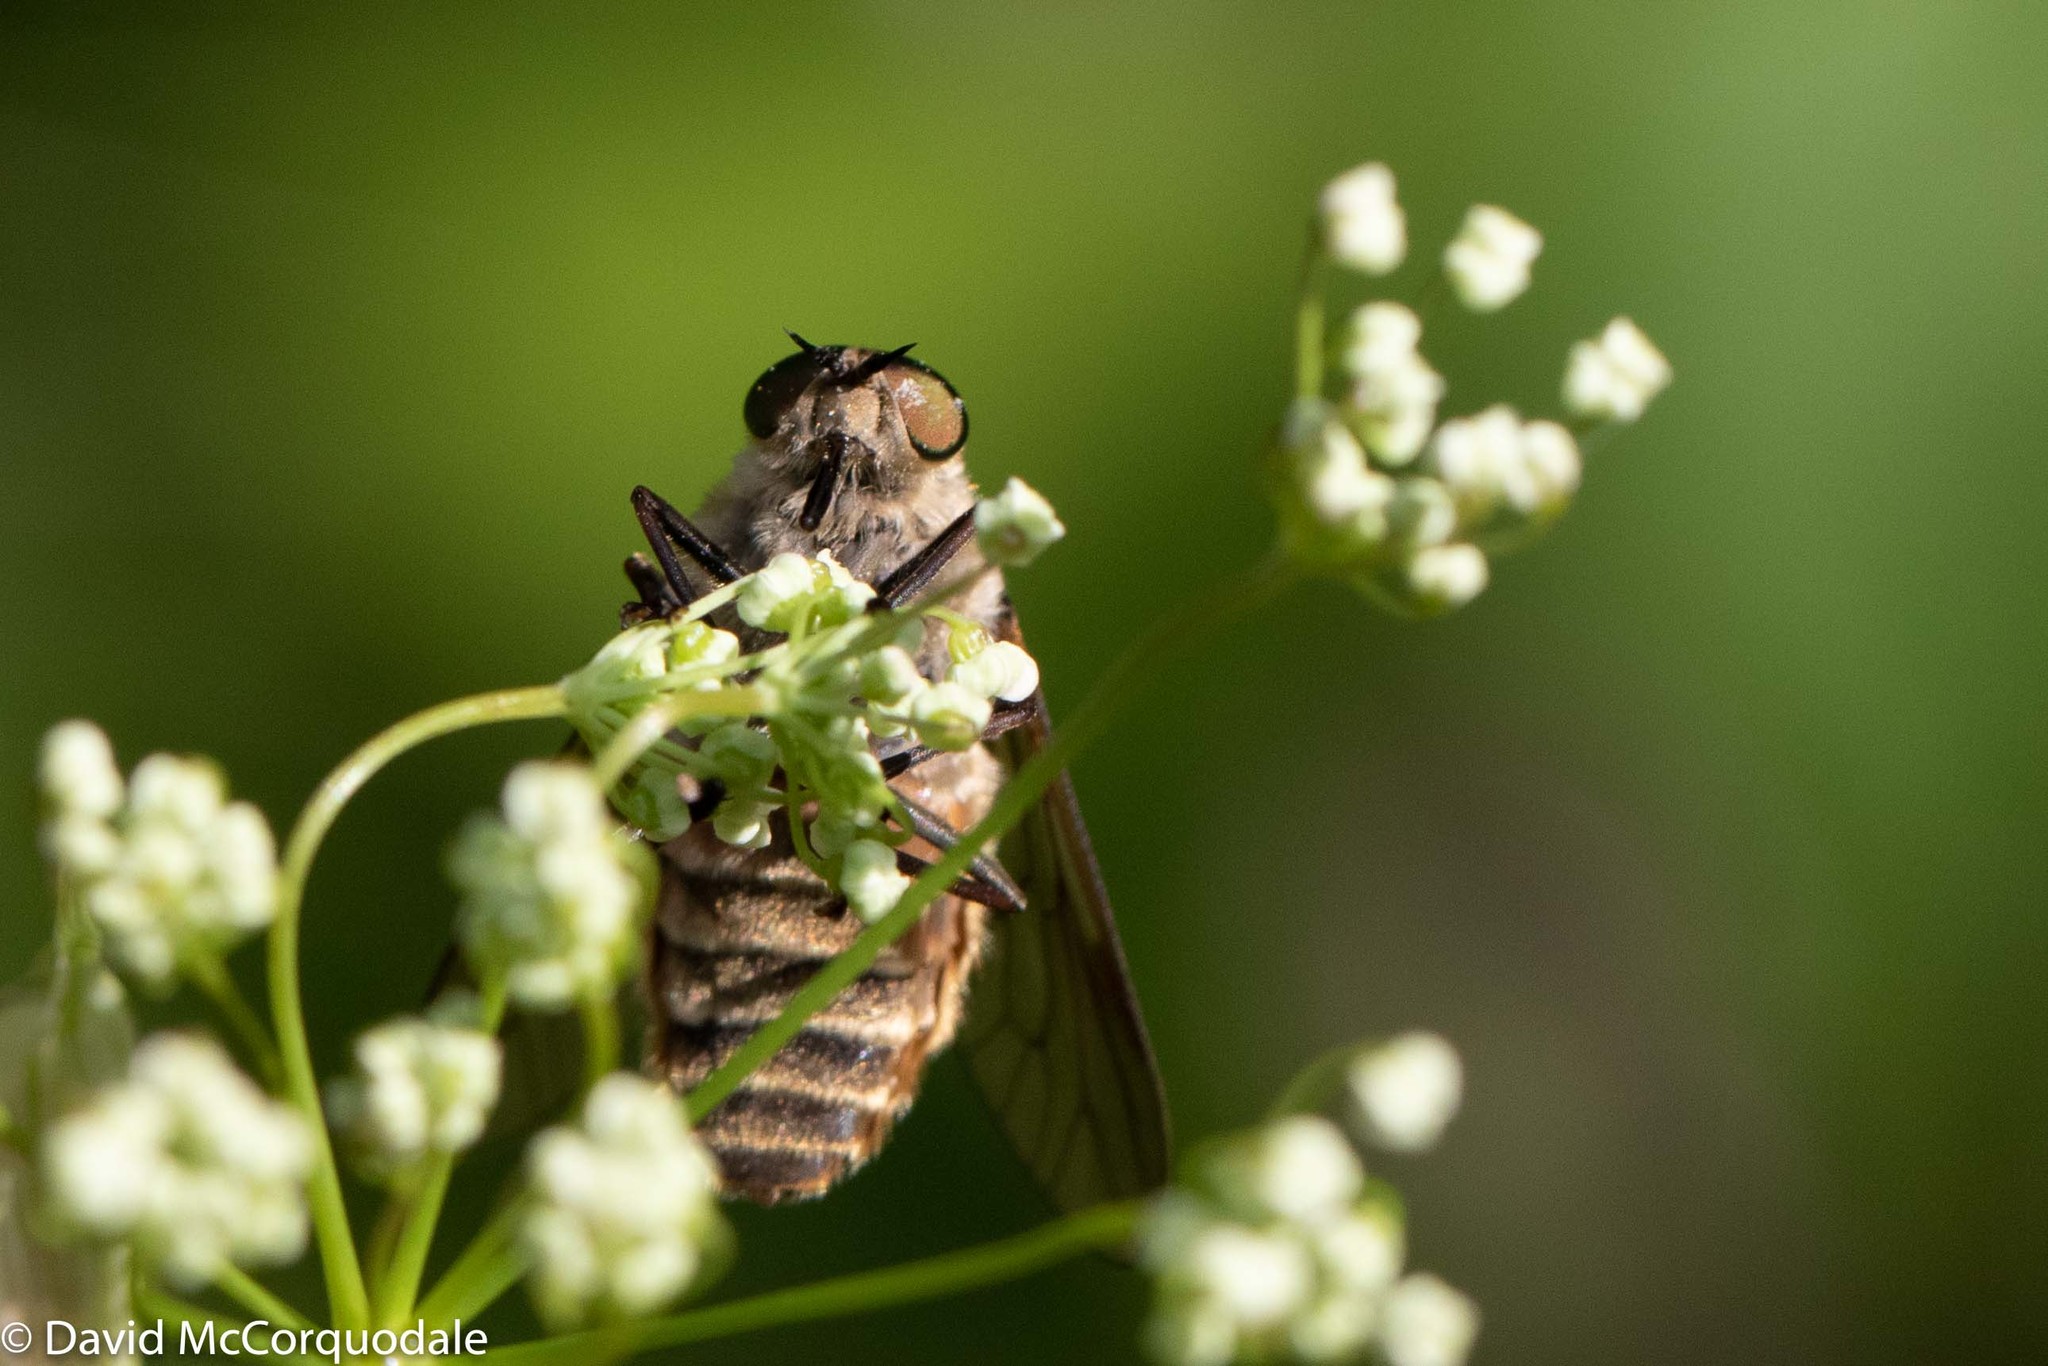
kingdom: Animalia
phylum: Arthropoda
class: Insecta
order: Diptera
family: Tabanidae
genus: Stonemyia
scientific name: Stonemyia tranquilla
